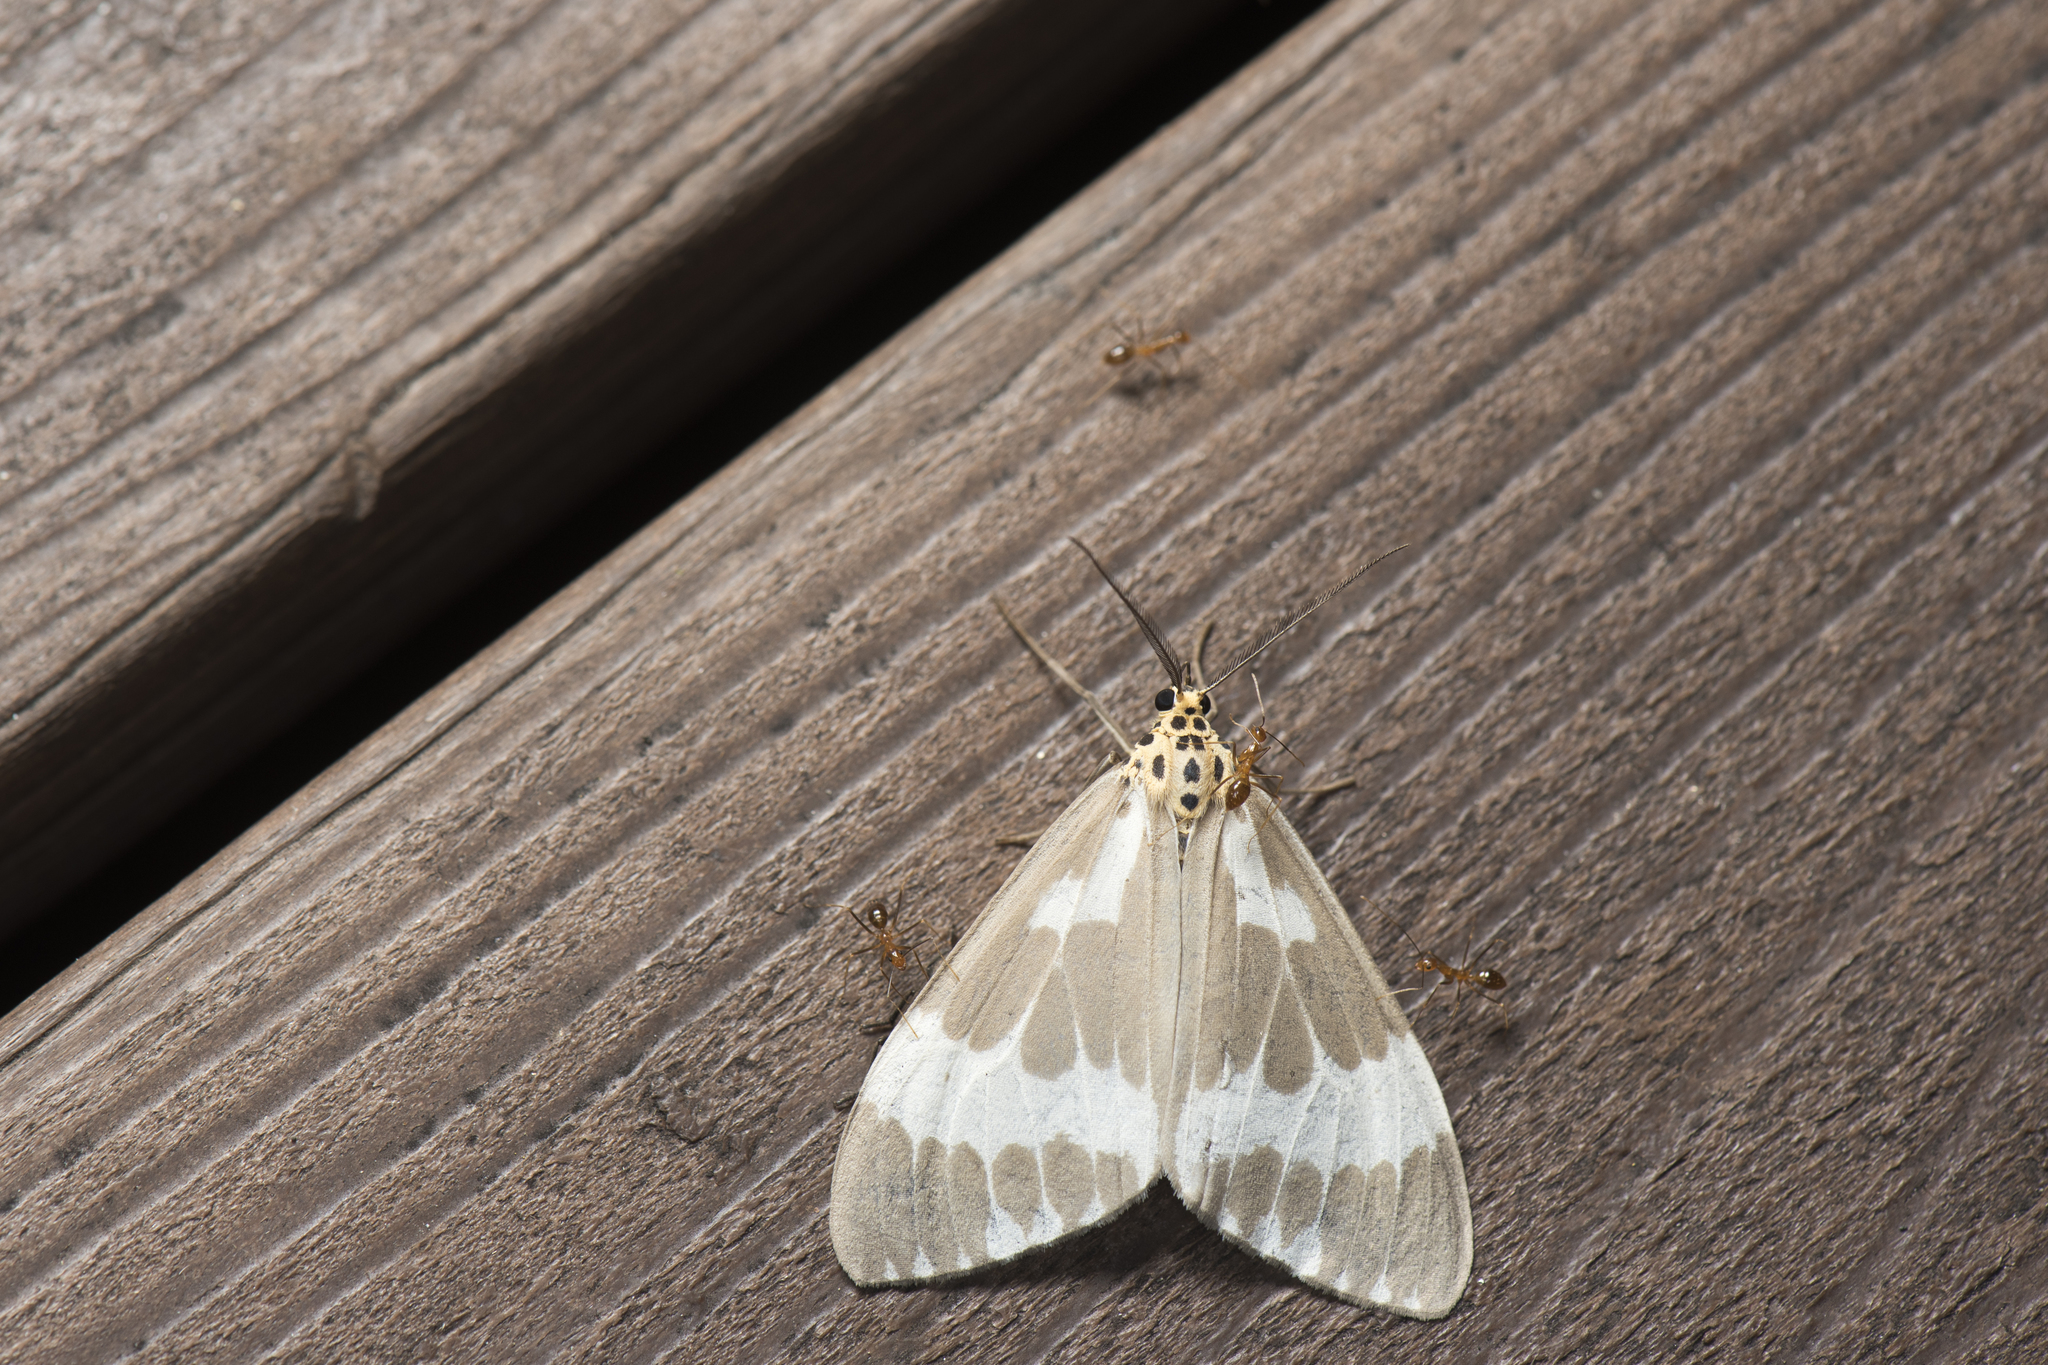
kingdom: Animalia
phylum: Arthropoda
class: Insecta
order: Lepidoptera
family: Erebidae
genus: Nyctemera
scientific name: Nyctemera arctata
